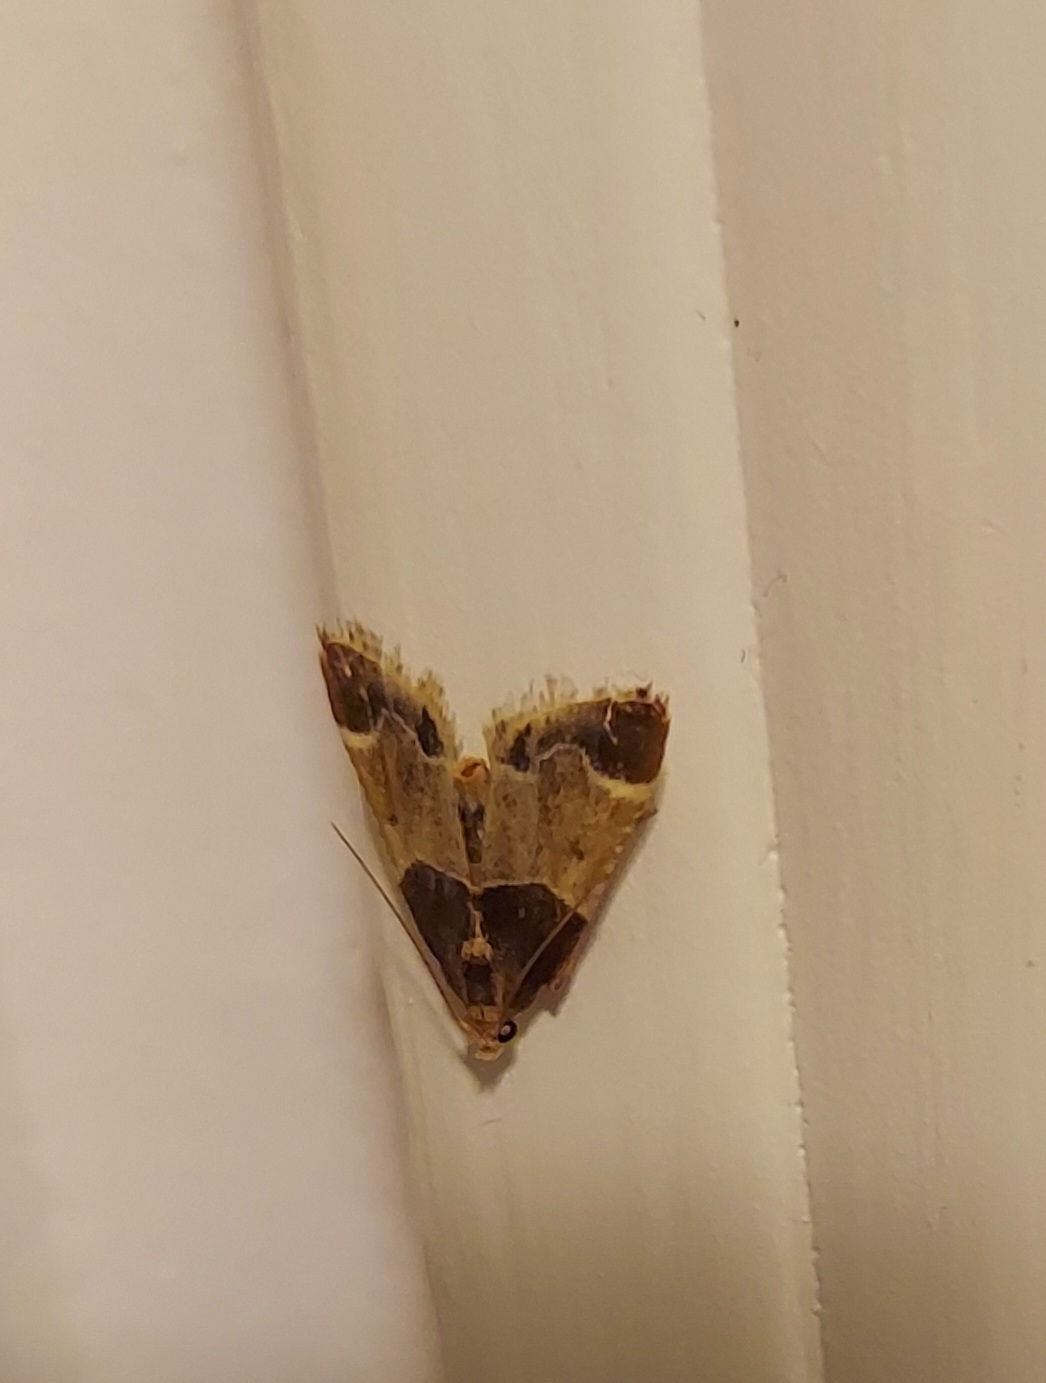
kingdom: Animalia
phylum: Arthropoda
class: Insecta
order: Lepidoptera
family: Pyralidae
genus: Pyralis
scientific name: Pyralis farinalis
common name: Meal moth
